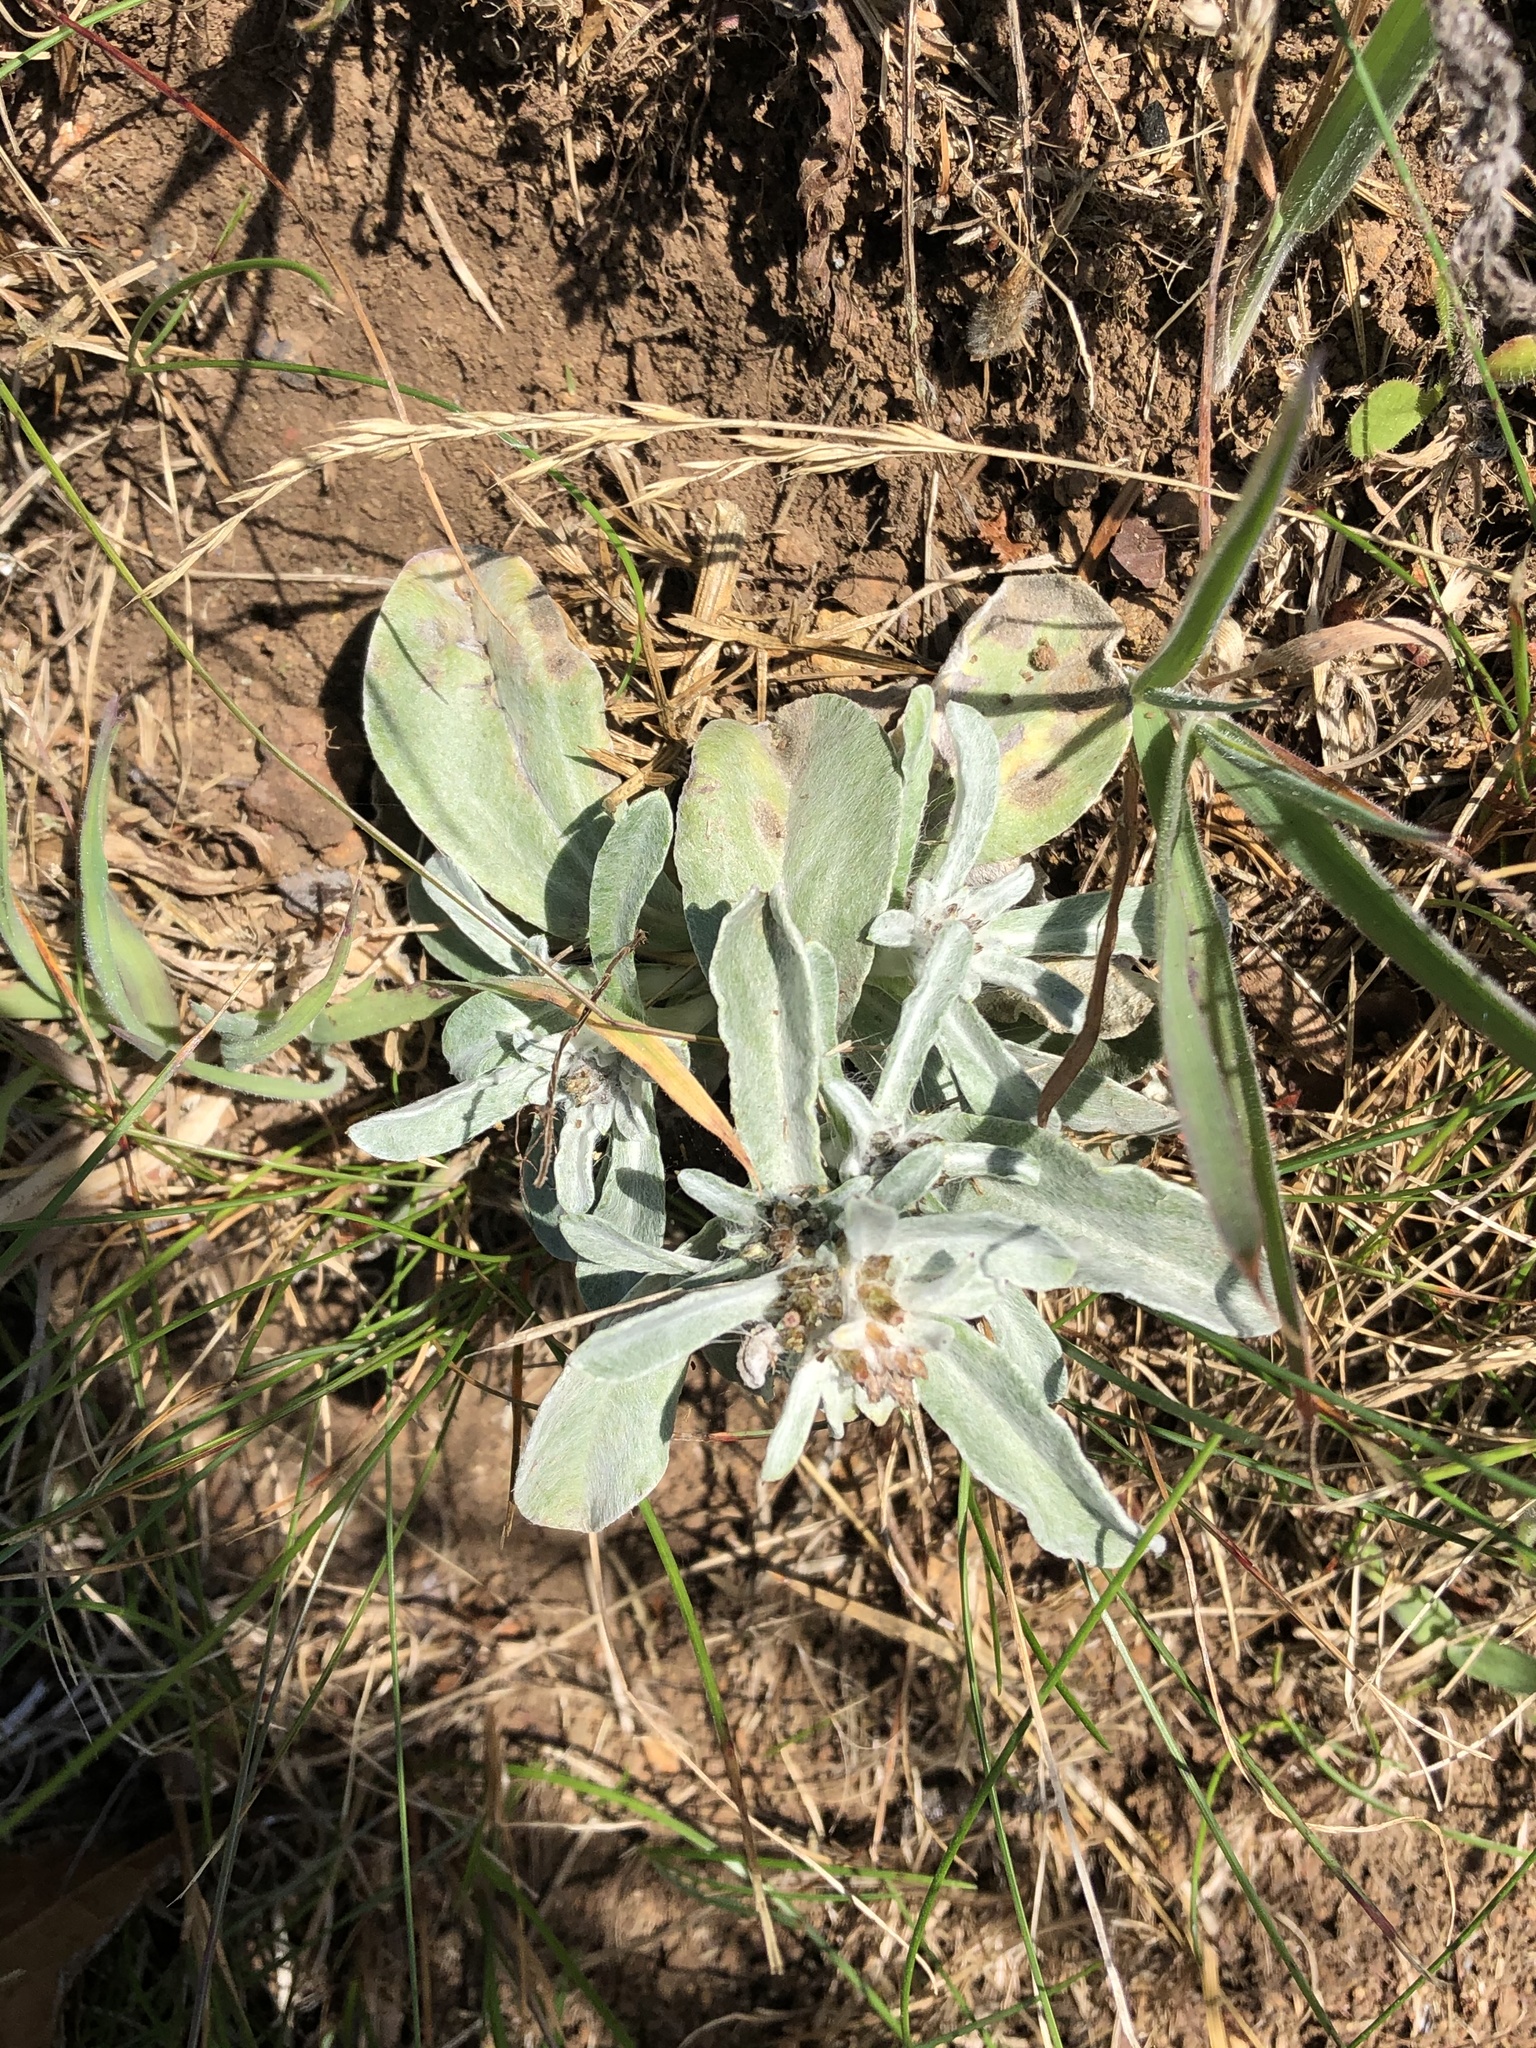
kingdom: Plantae
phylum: Tracheophyta
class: Magnoliopsida
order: Asterales
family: Asteraceae
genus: Gamochaeta
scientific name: Gamochaeta ustulata
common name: Pacific cudweed
